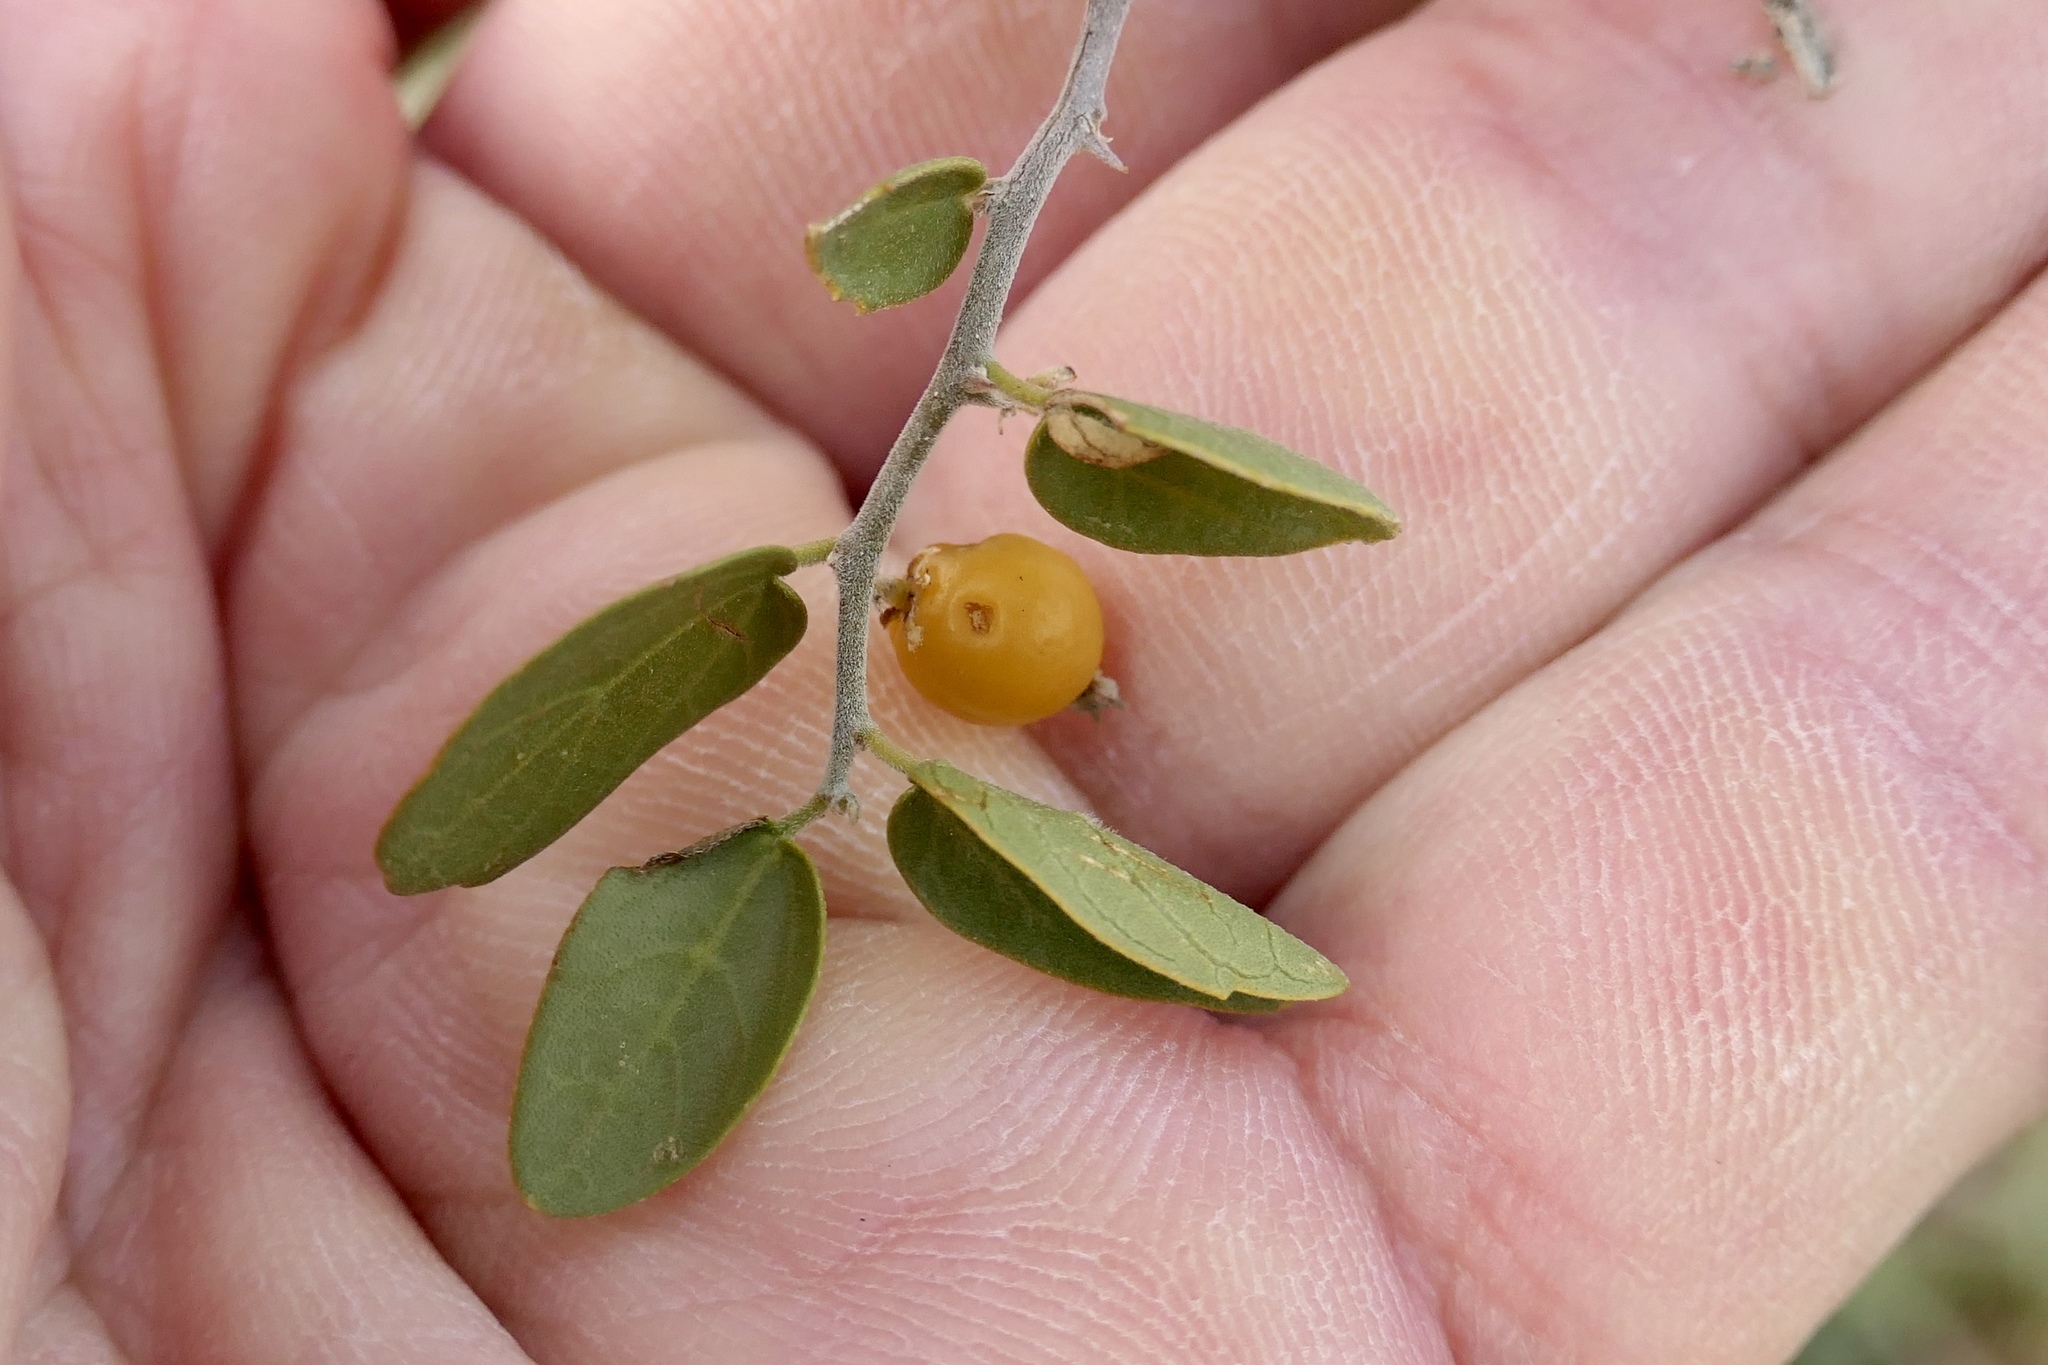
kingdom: Plantae
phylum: Tracheophyta
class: Magnoliopsida
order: Rosales
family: Cannabaceae
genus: Celtis
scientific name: Celtis pallida
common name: Desert hackberry
